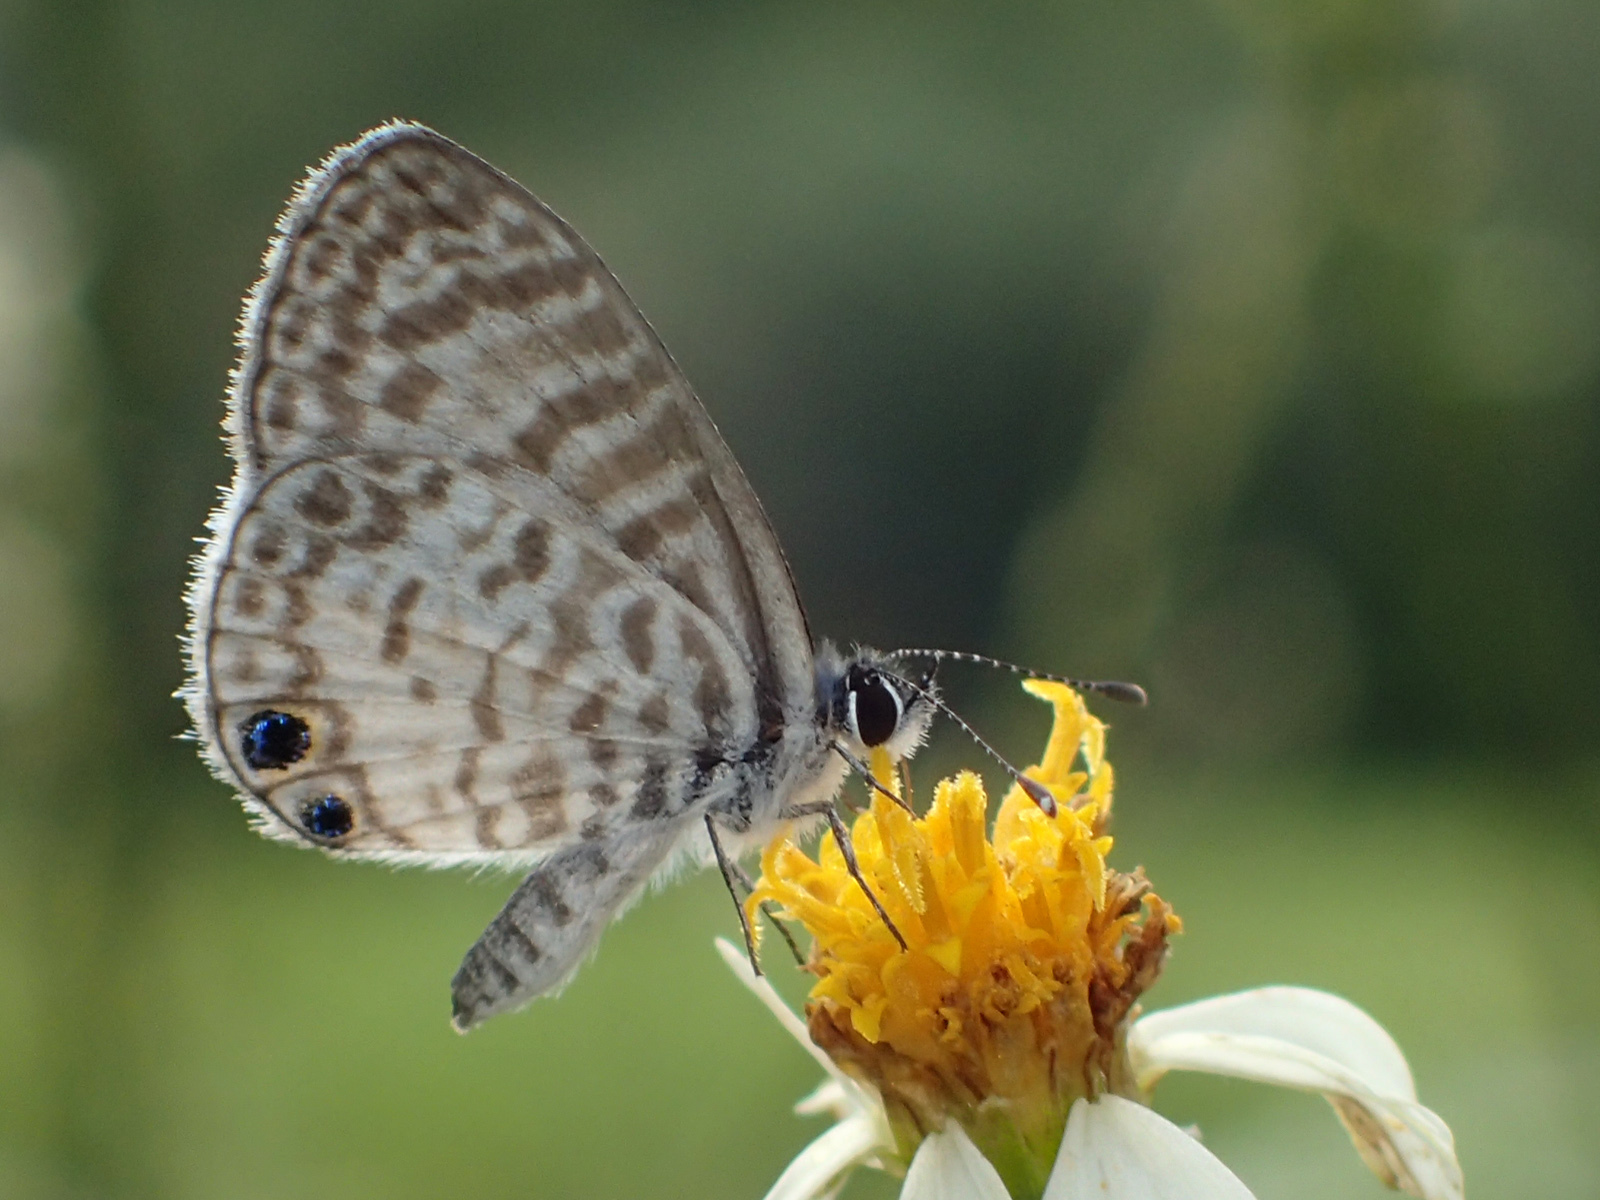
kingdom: Animalia
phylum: Arthropoda
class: Insecta
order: Lepidoptera
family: Lycaenidae
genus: Leptotes
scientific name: Leptotes cassius
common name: Cassius blue
